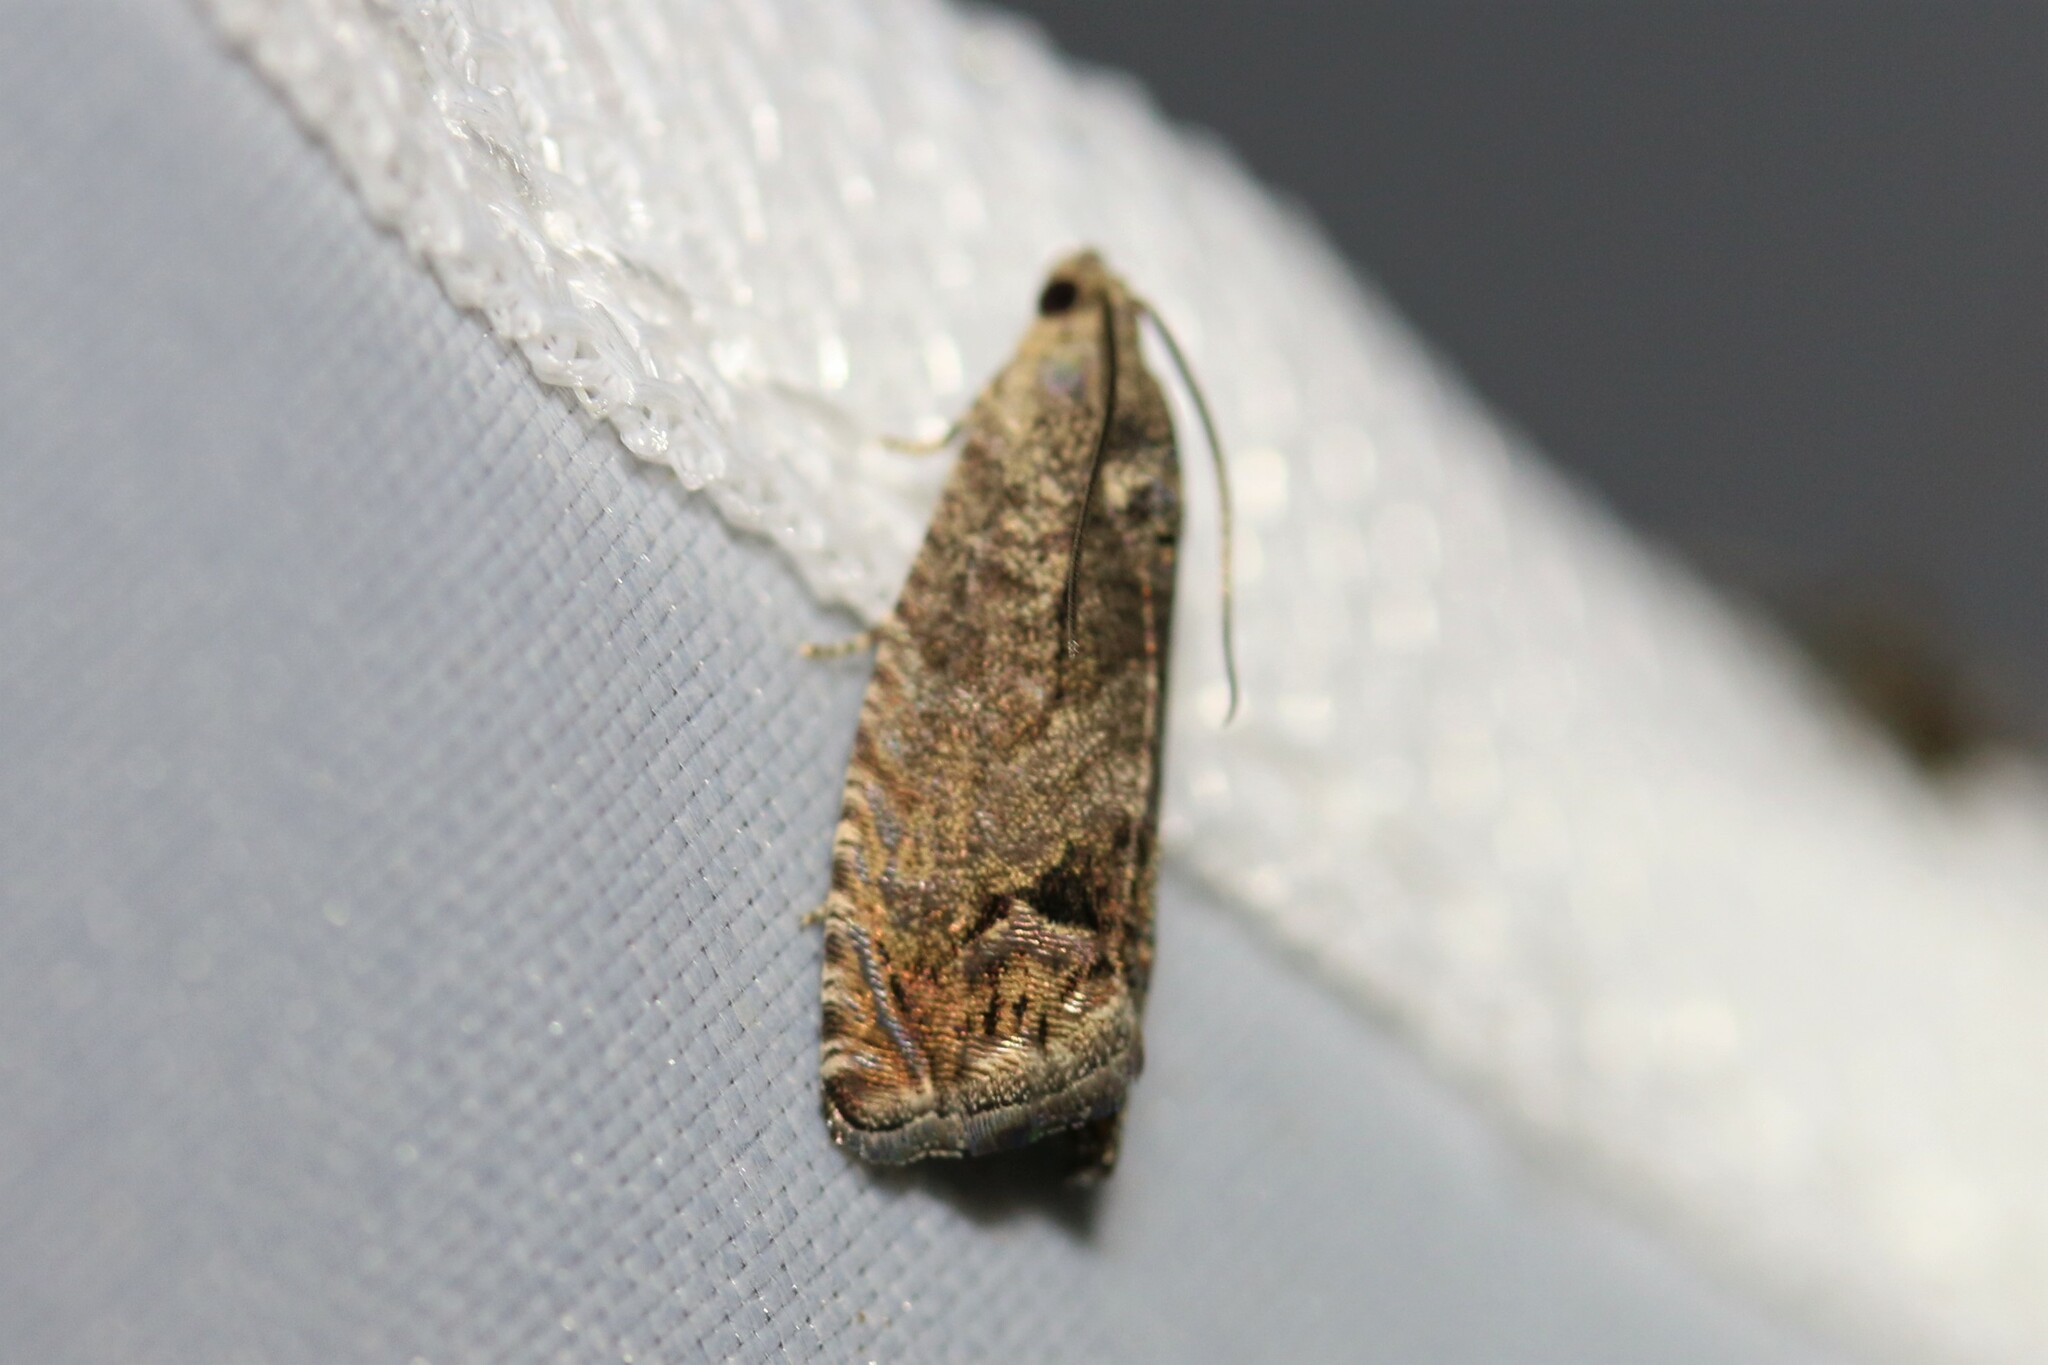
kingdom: Animalia
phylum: Arthropoda
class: Insecta
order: Lepidoptera
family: Tortricidae
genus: Cydia
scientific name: Cydia splendana
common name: De: kastanienwickler, eichenwickler es: oruga de la castaña fr: carpocapse des châtaignes it: cidia o tortrice tardiva delle castagne pt: bichado das castanhas gb: acorn moth, chestnut fruit tortrix
